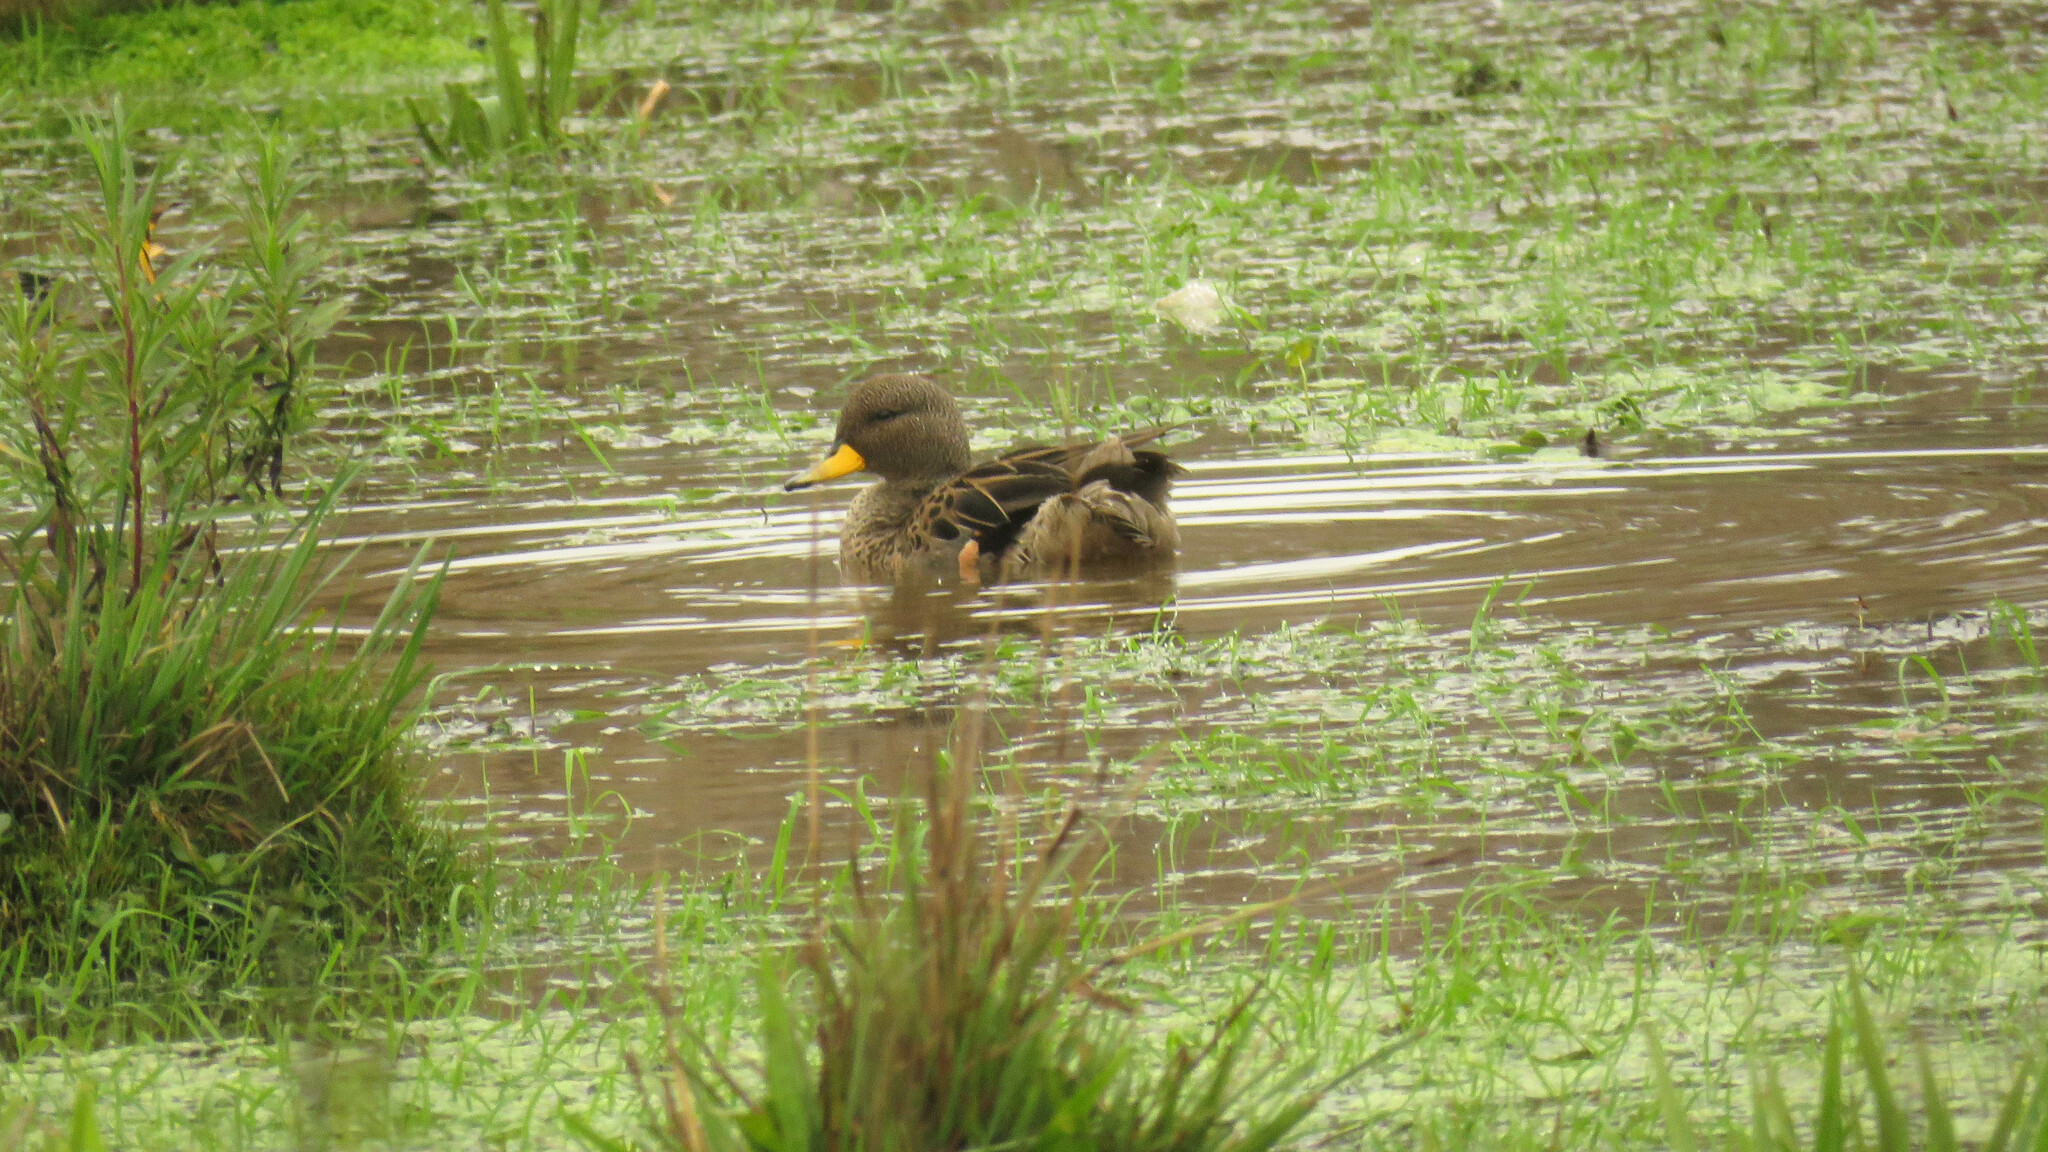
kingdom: Animalia
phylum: Chordata
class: Aves
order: Anseriformes
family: Anatidae
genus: Anas
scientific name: Anas flavirostris
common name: Yellow-billed teal
